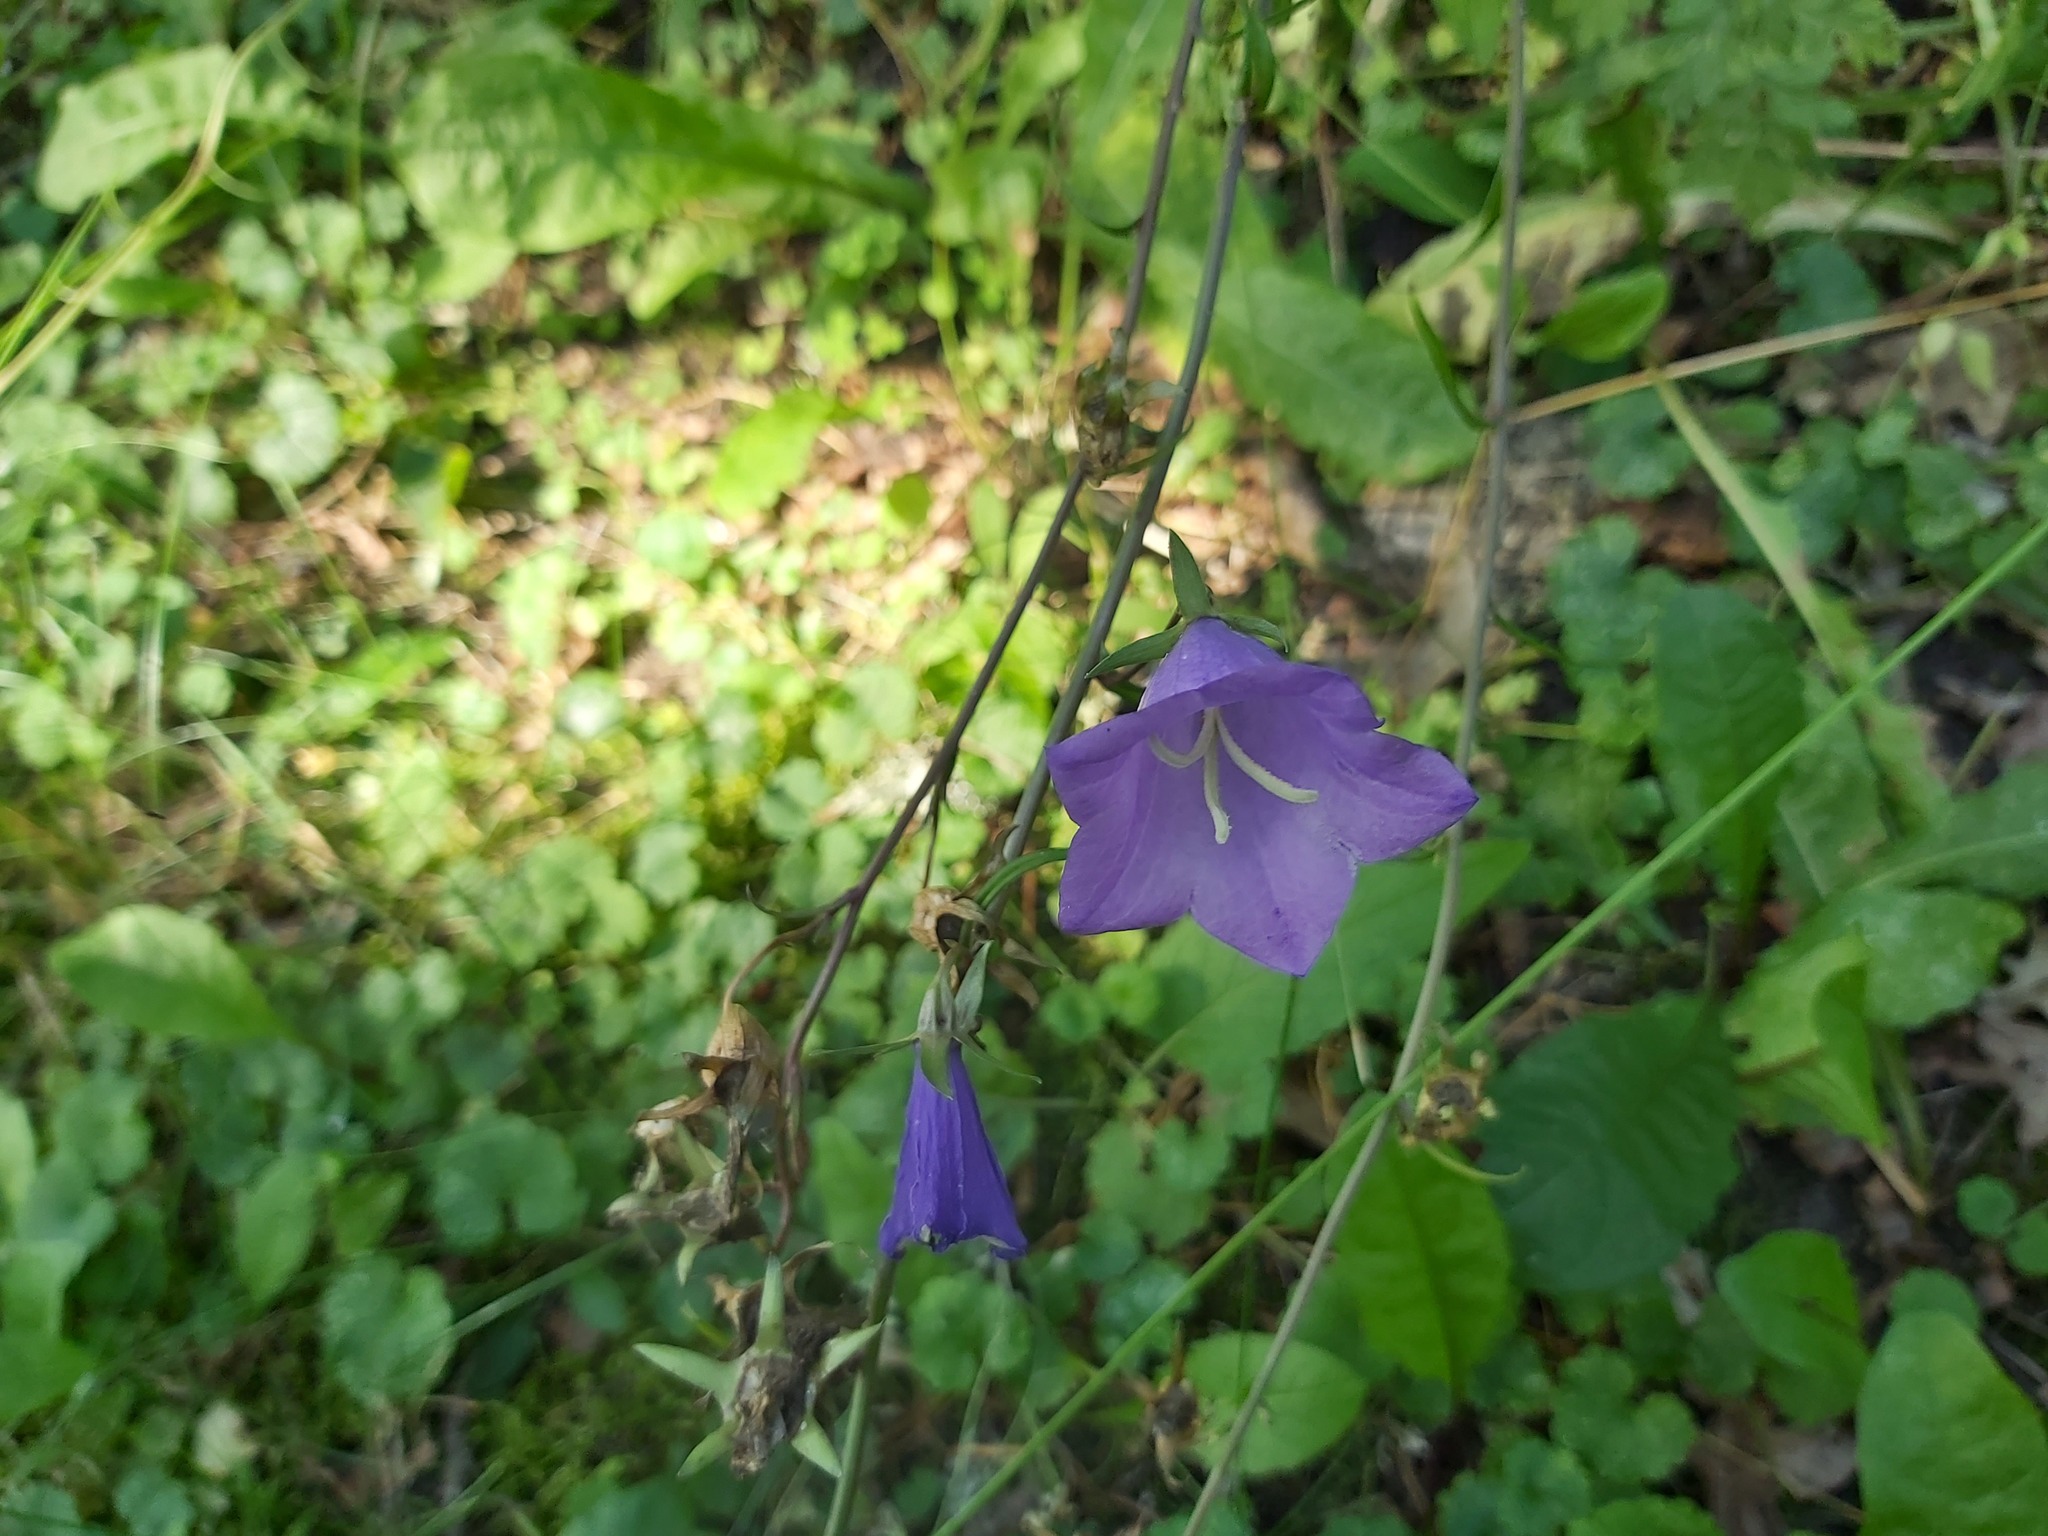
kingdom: Plantae
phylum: Tracheophyta
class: Magnoliopsida
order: Asterales
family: Campanulaceae
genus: Campanula
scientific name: Campanula persicifolia
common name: Peach-leaved bellflower
